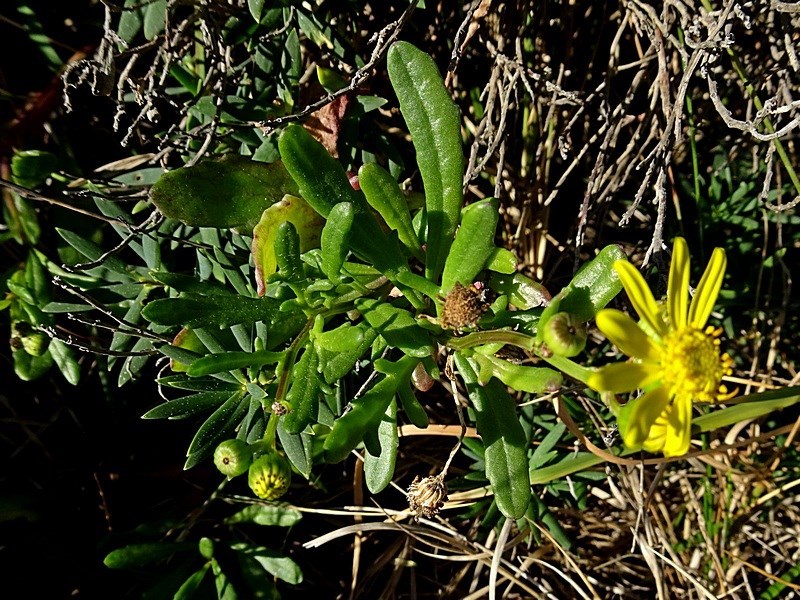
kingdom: Plantae
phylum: Tracheophyta
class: Magnoliopsida
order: Asterales
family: Asteraceae
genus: Senecio
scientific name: Senecio pinnatifolius
